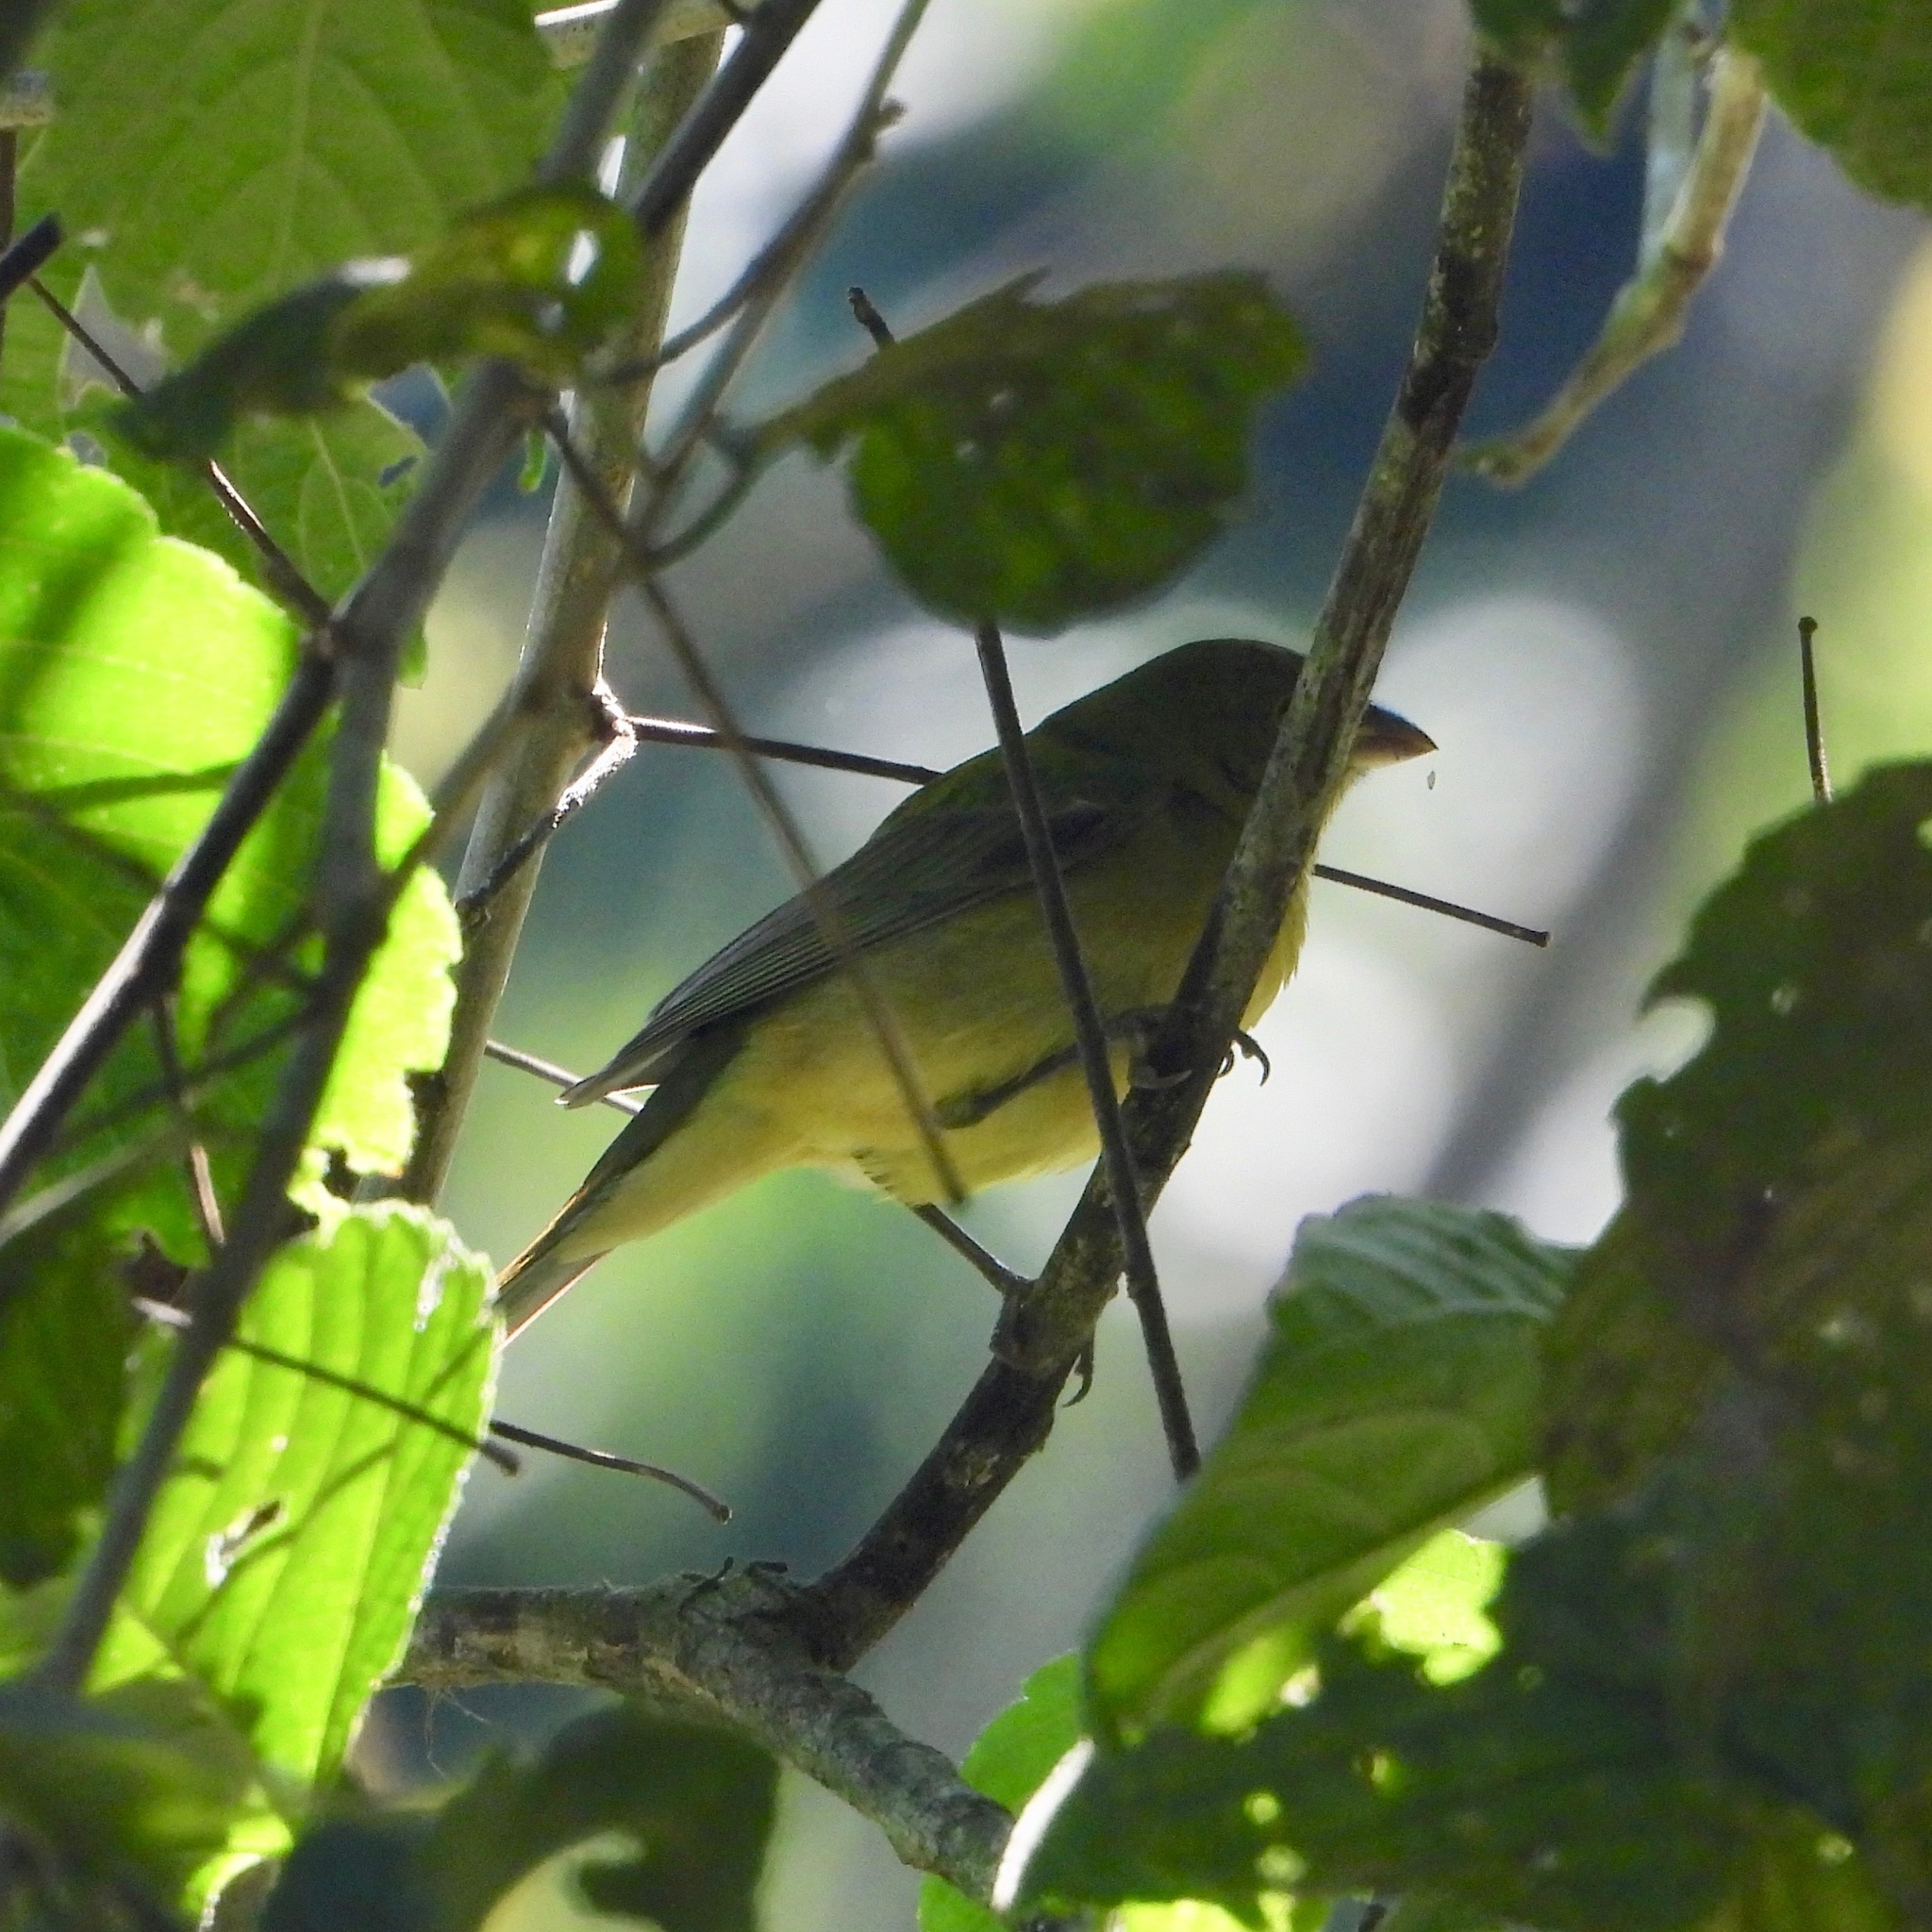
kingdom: Animalia
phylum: Chordata
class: Aves
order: Passeriformes
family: Cardinalidae
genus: Passerina
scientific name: Passerina ciris
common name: Painted bunting
